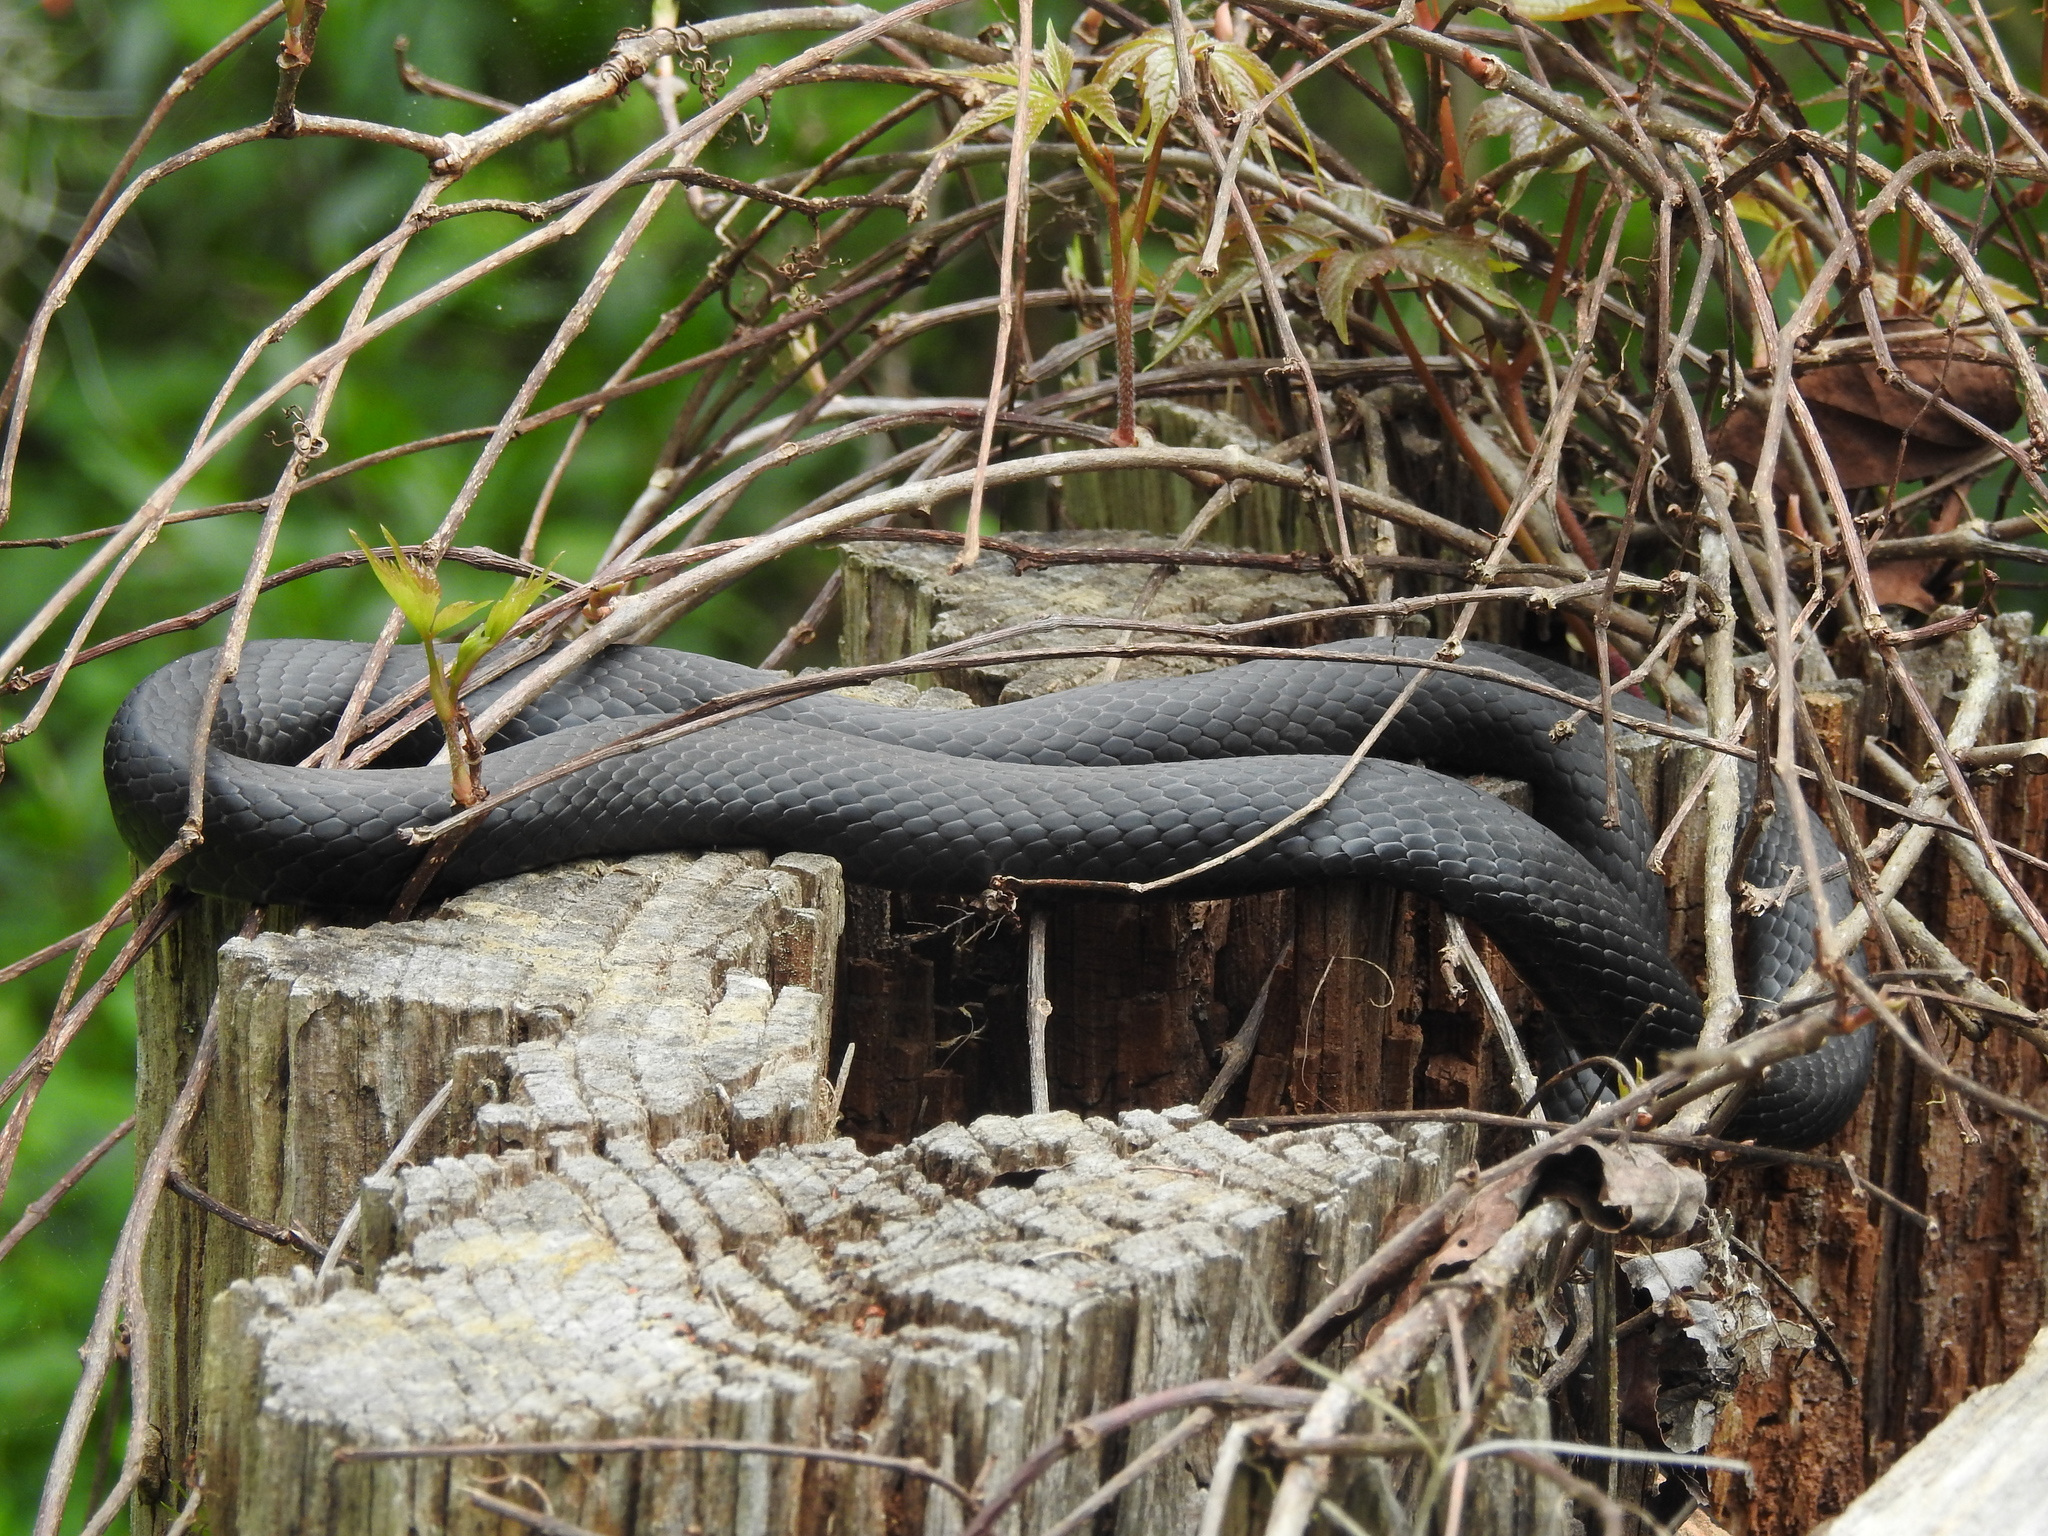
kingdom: Animalia
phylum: Chordata
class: Squamata
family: Colubridae
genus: Coluber
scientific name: Coluber constrictor
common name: Eastern racer
